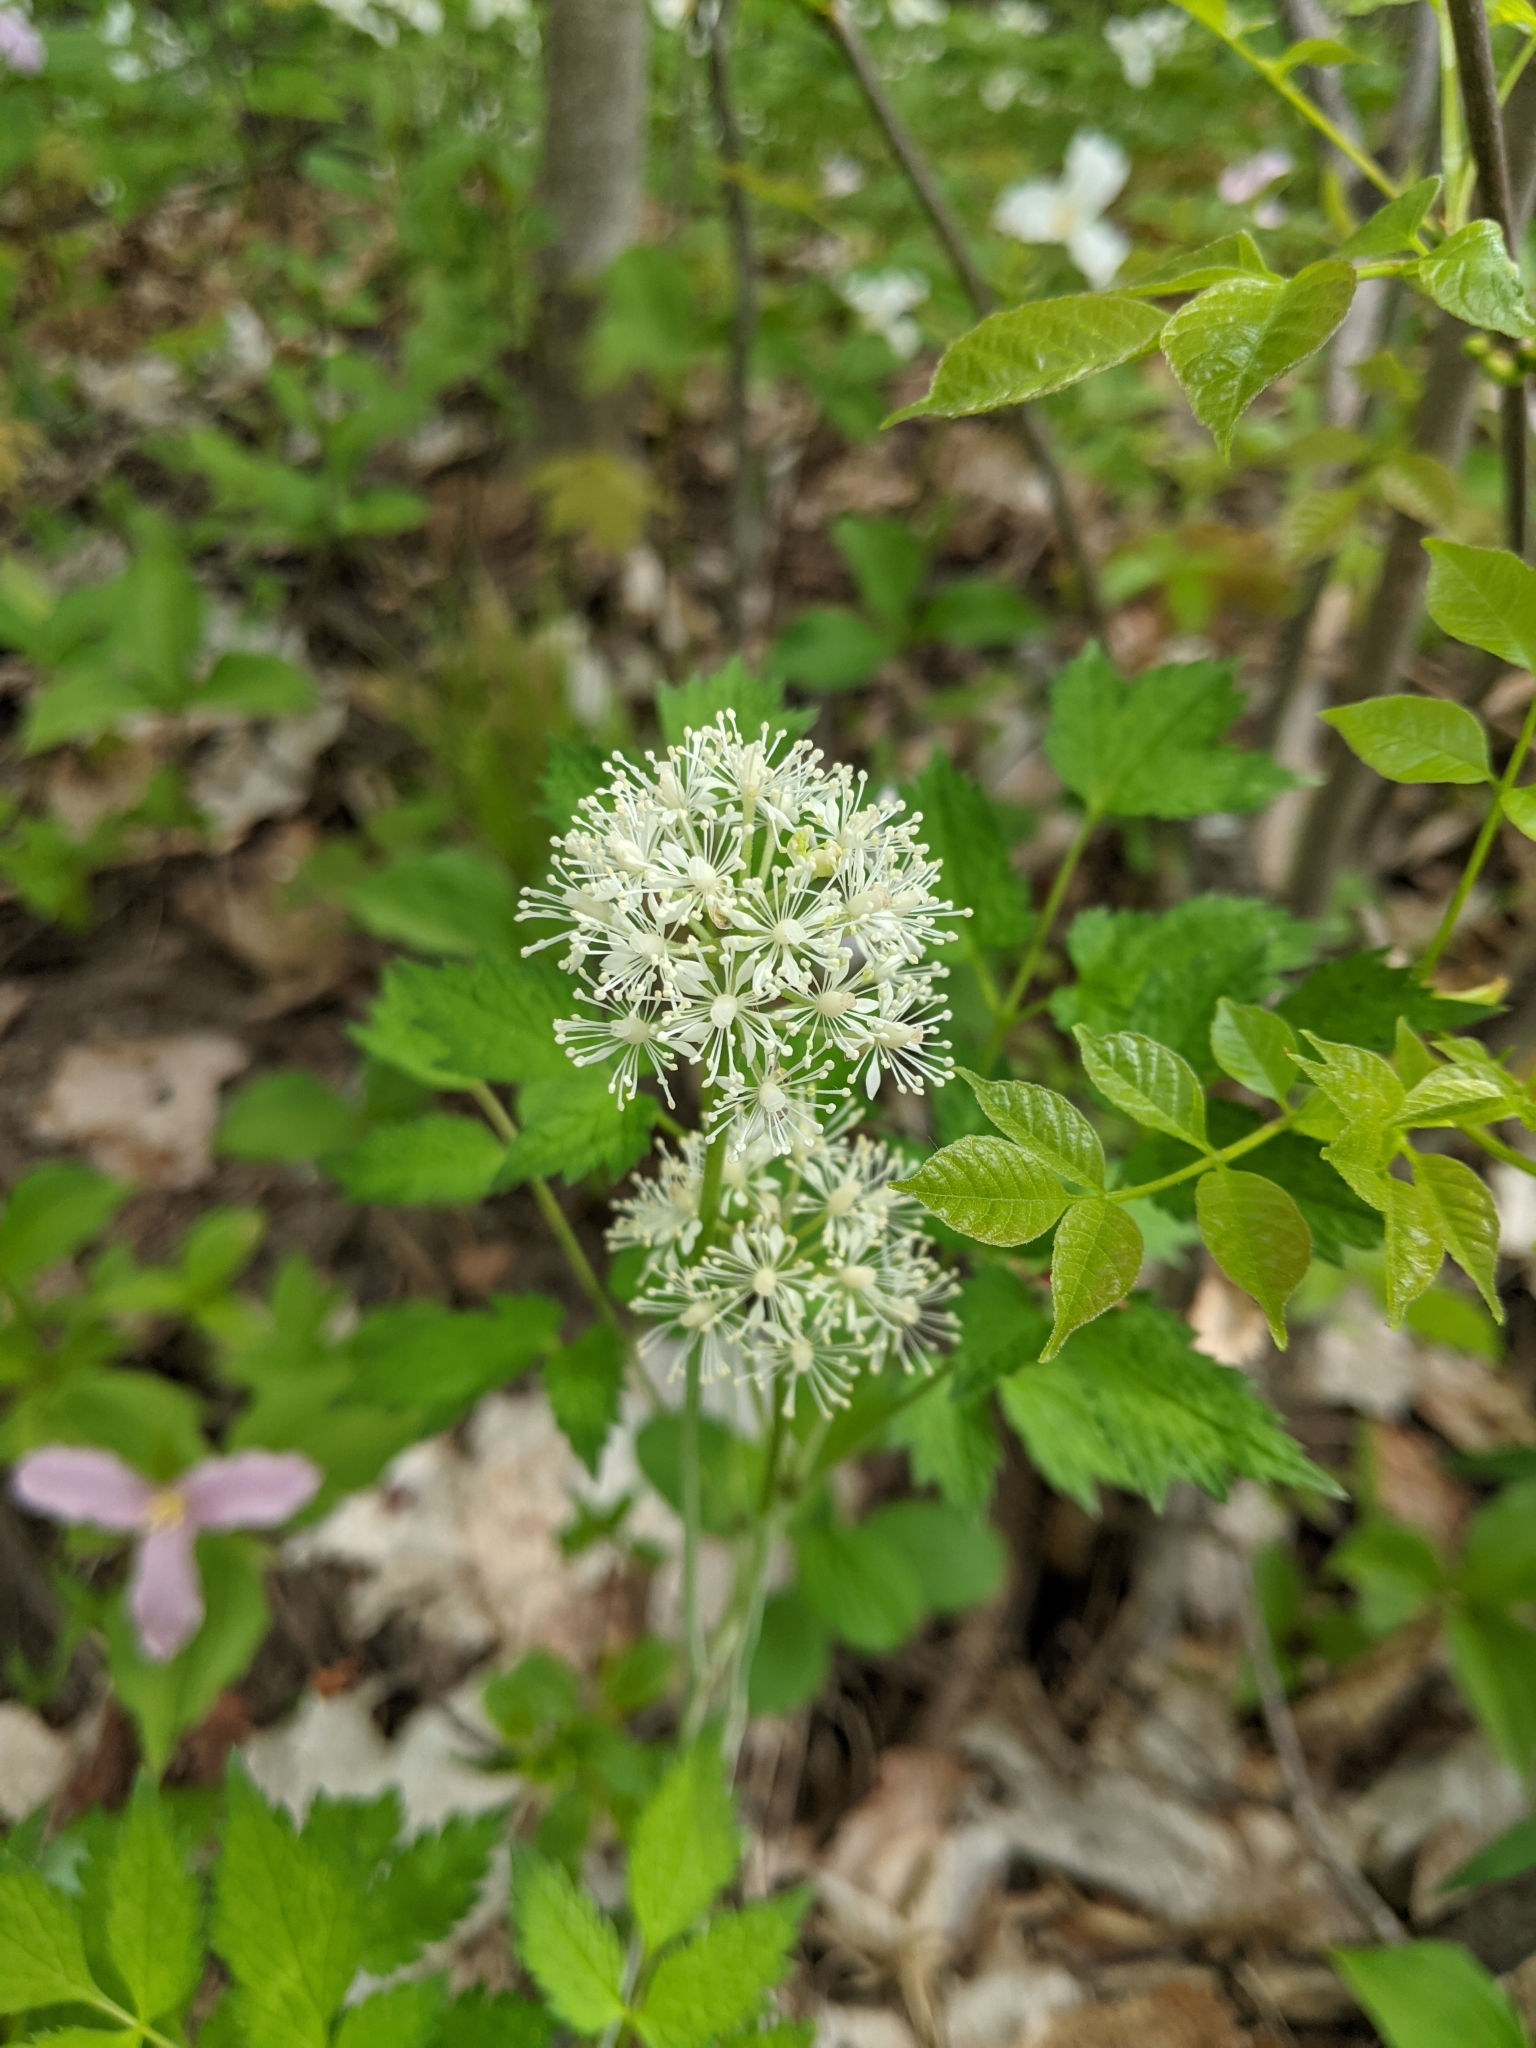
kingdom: Plantae
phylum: Tracheophyta
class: Magnoliopsida
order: Ranunculales
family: Ranunculaceae
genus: Actaea
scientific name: Actaea rubra
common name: Red baneberry
